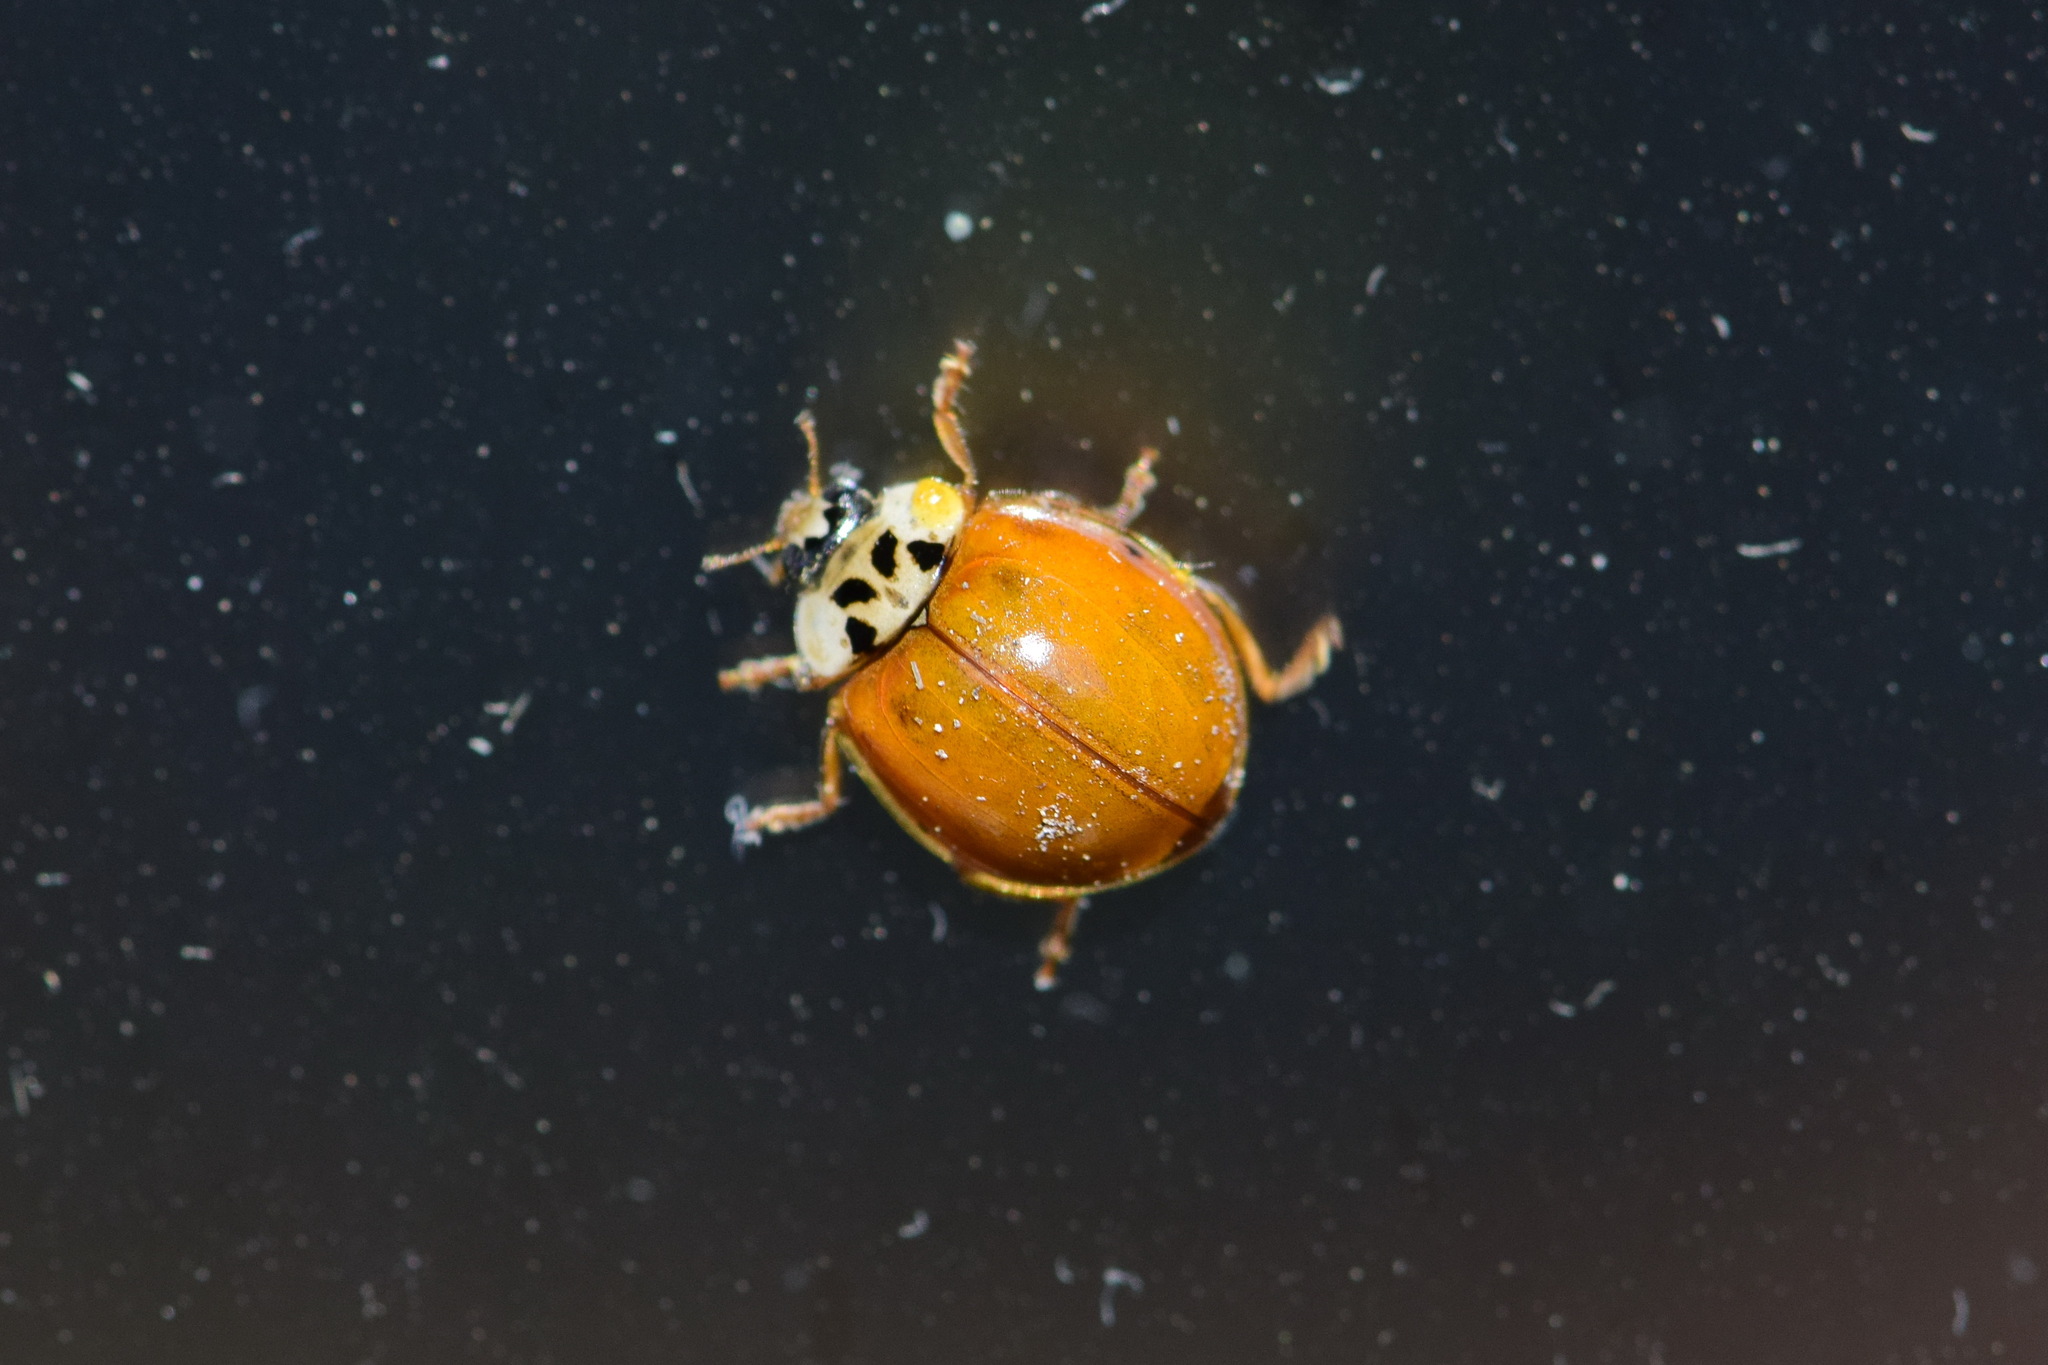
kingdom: Animalia
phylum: Arthropoda
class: Insecta
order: Coleoptera
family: Coccinellidae
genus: Harmonia
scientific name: Harmonia axyridis
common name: Harlequin ladybird
